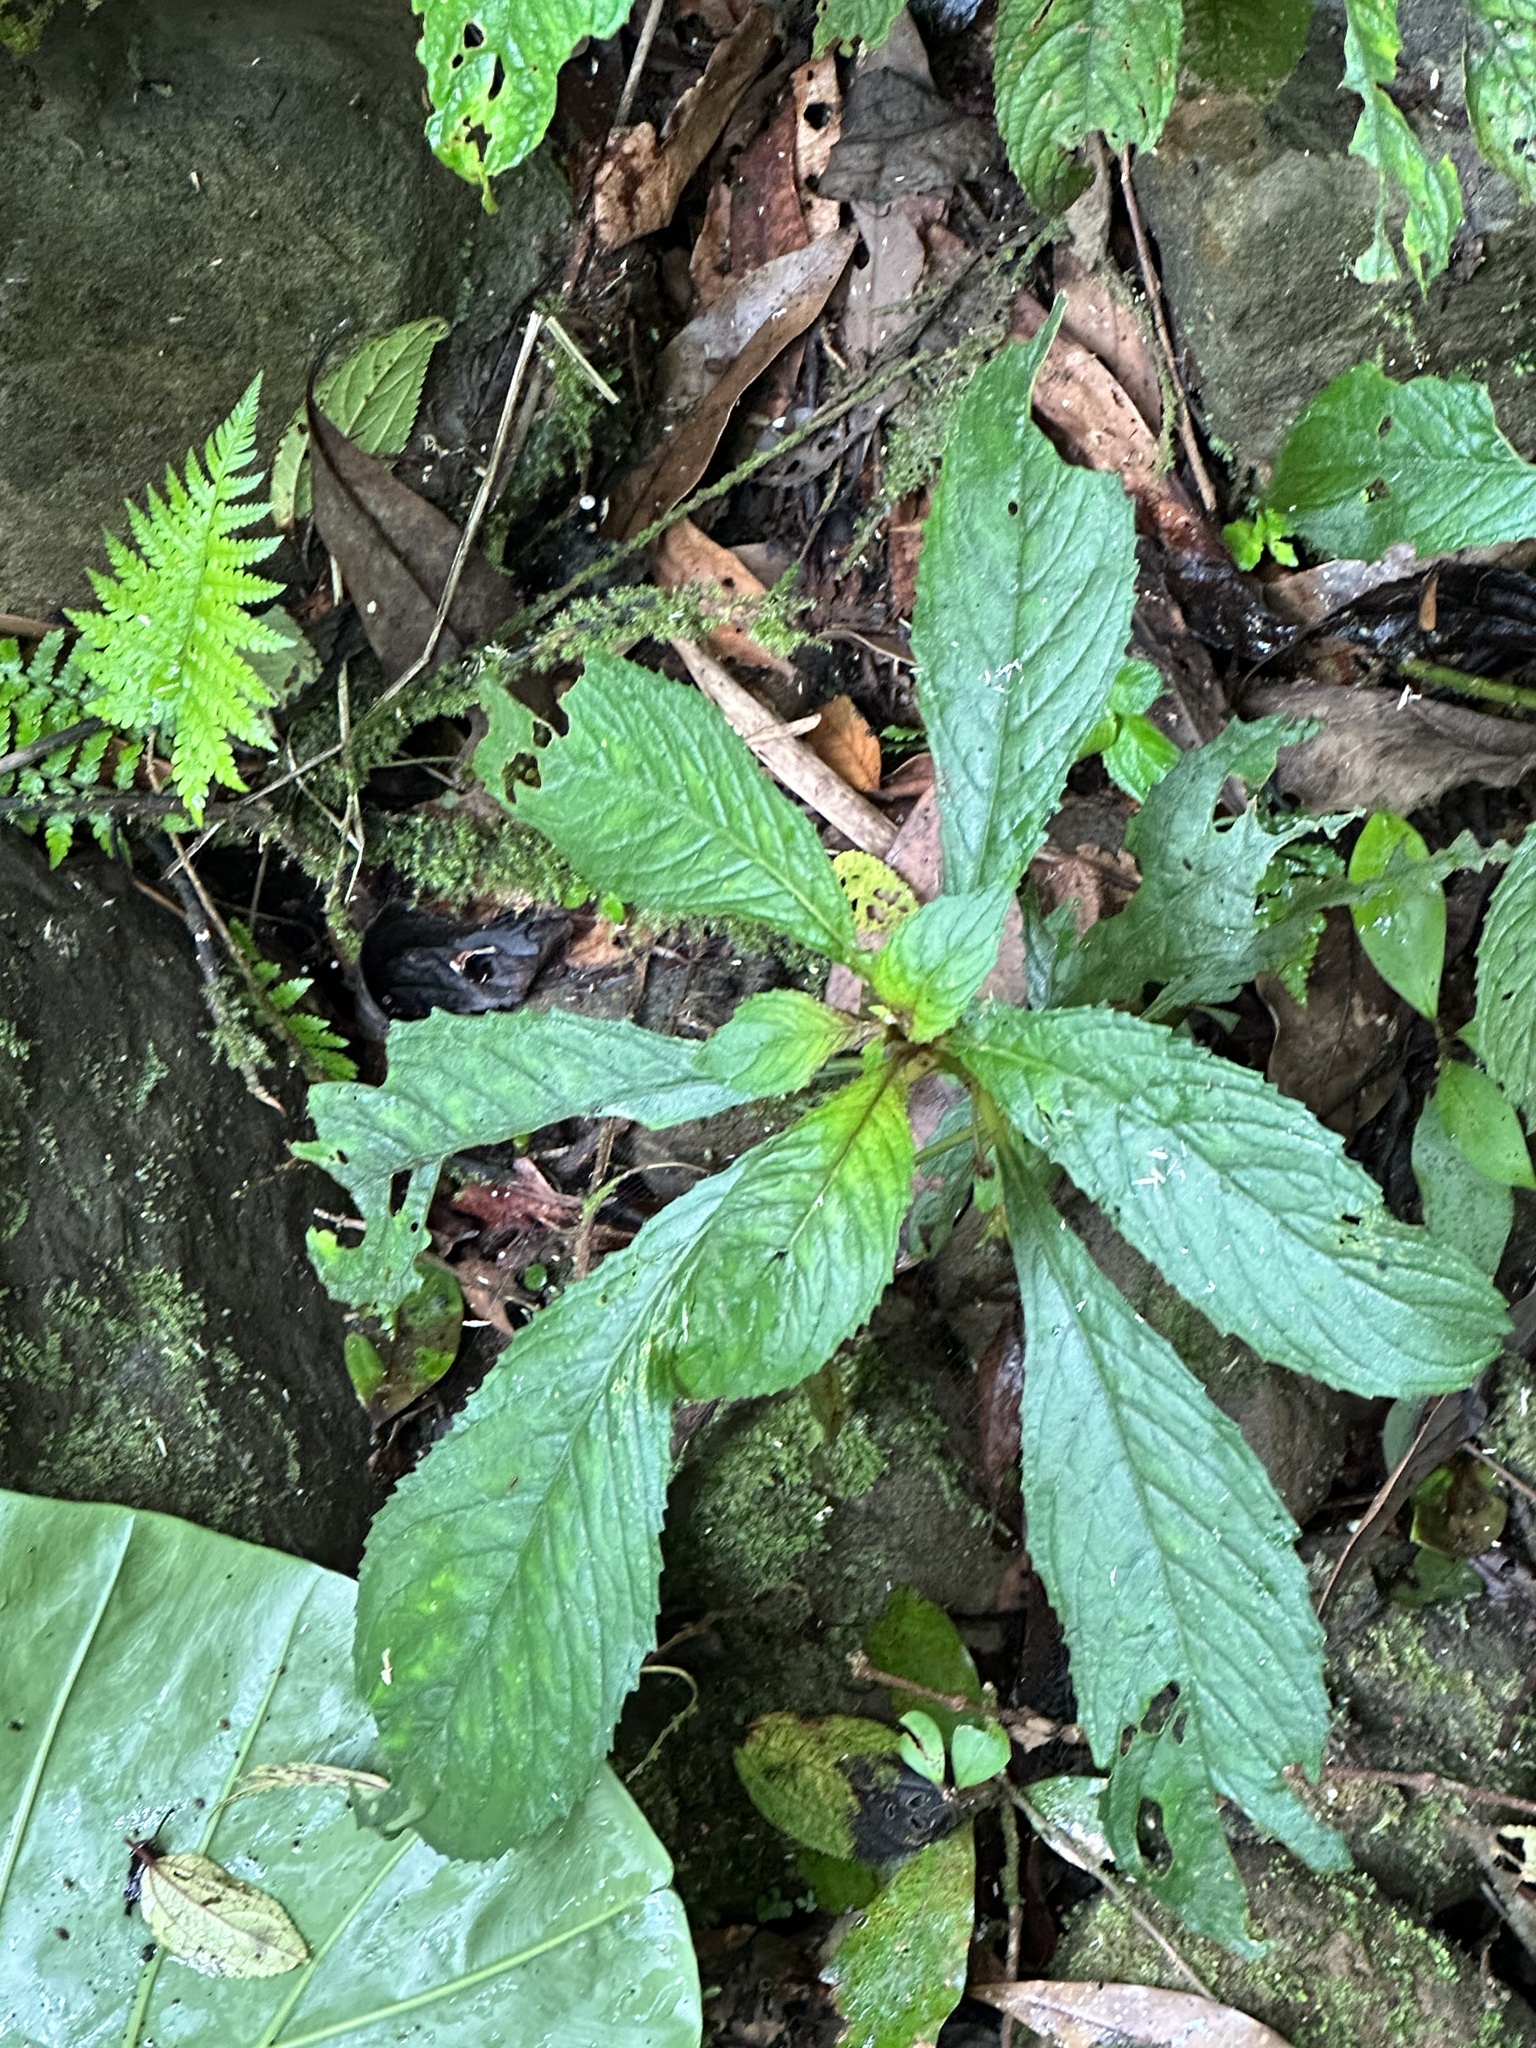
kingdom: Plantae
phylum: Tracheophyta
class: Magnoliopsida
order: Lamiales
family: Gesneriaceae
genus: Rhynchotechum
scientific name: Rhynchotechum discolor
